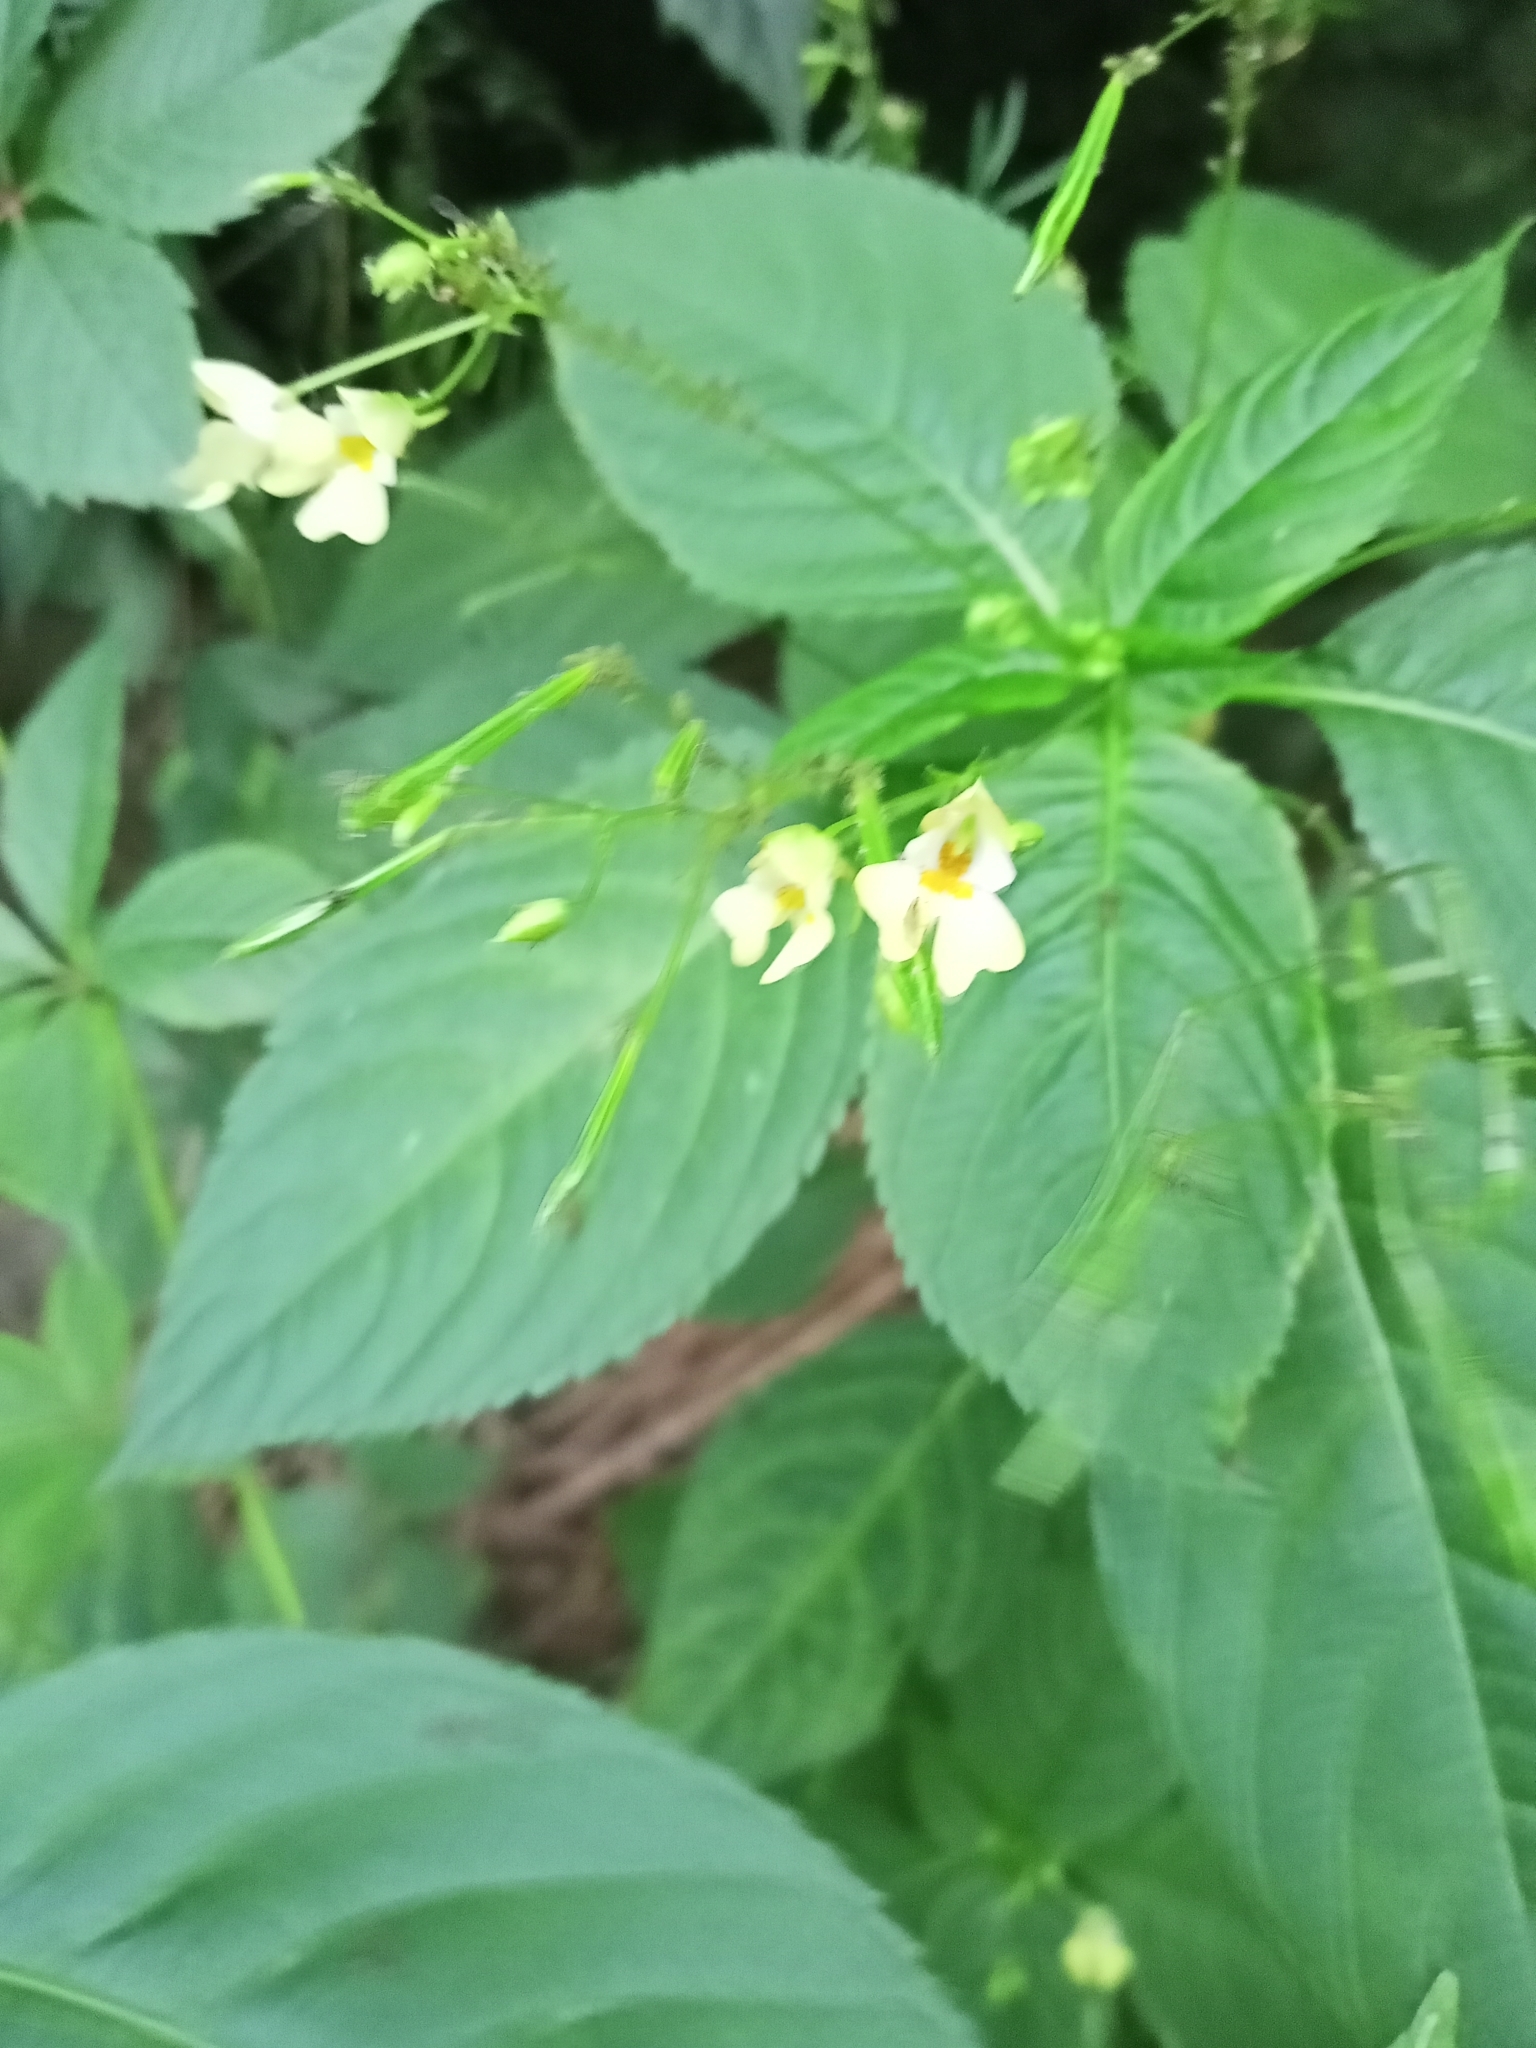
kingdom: Plantae
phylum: Tracheophyta
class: Magnoliopsida
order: Ericales
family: Balsaminaceae
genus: Impatiens
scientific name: Impatiens parviflora
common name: Small balsam
